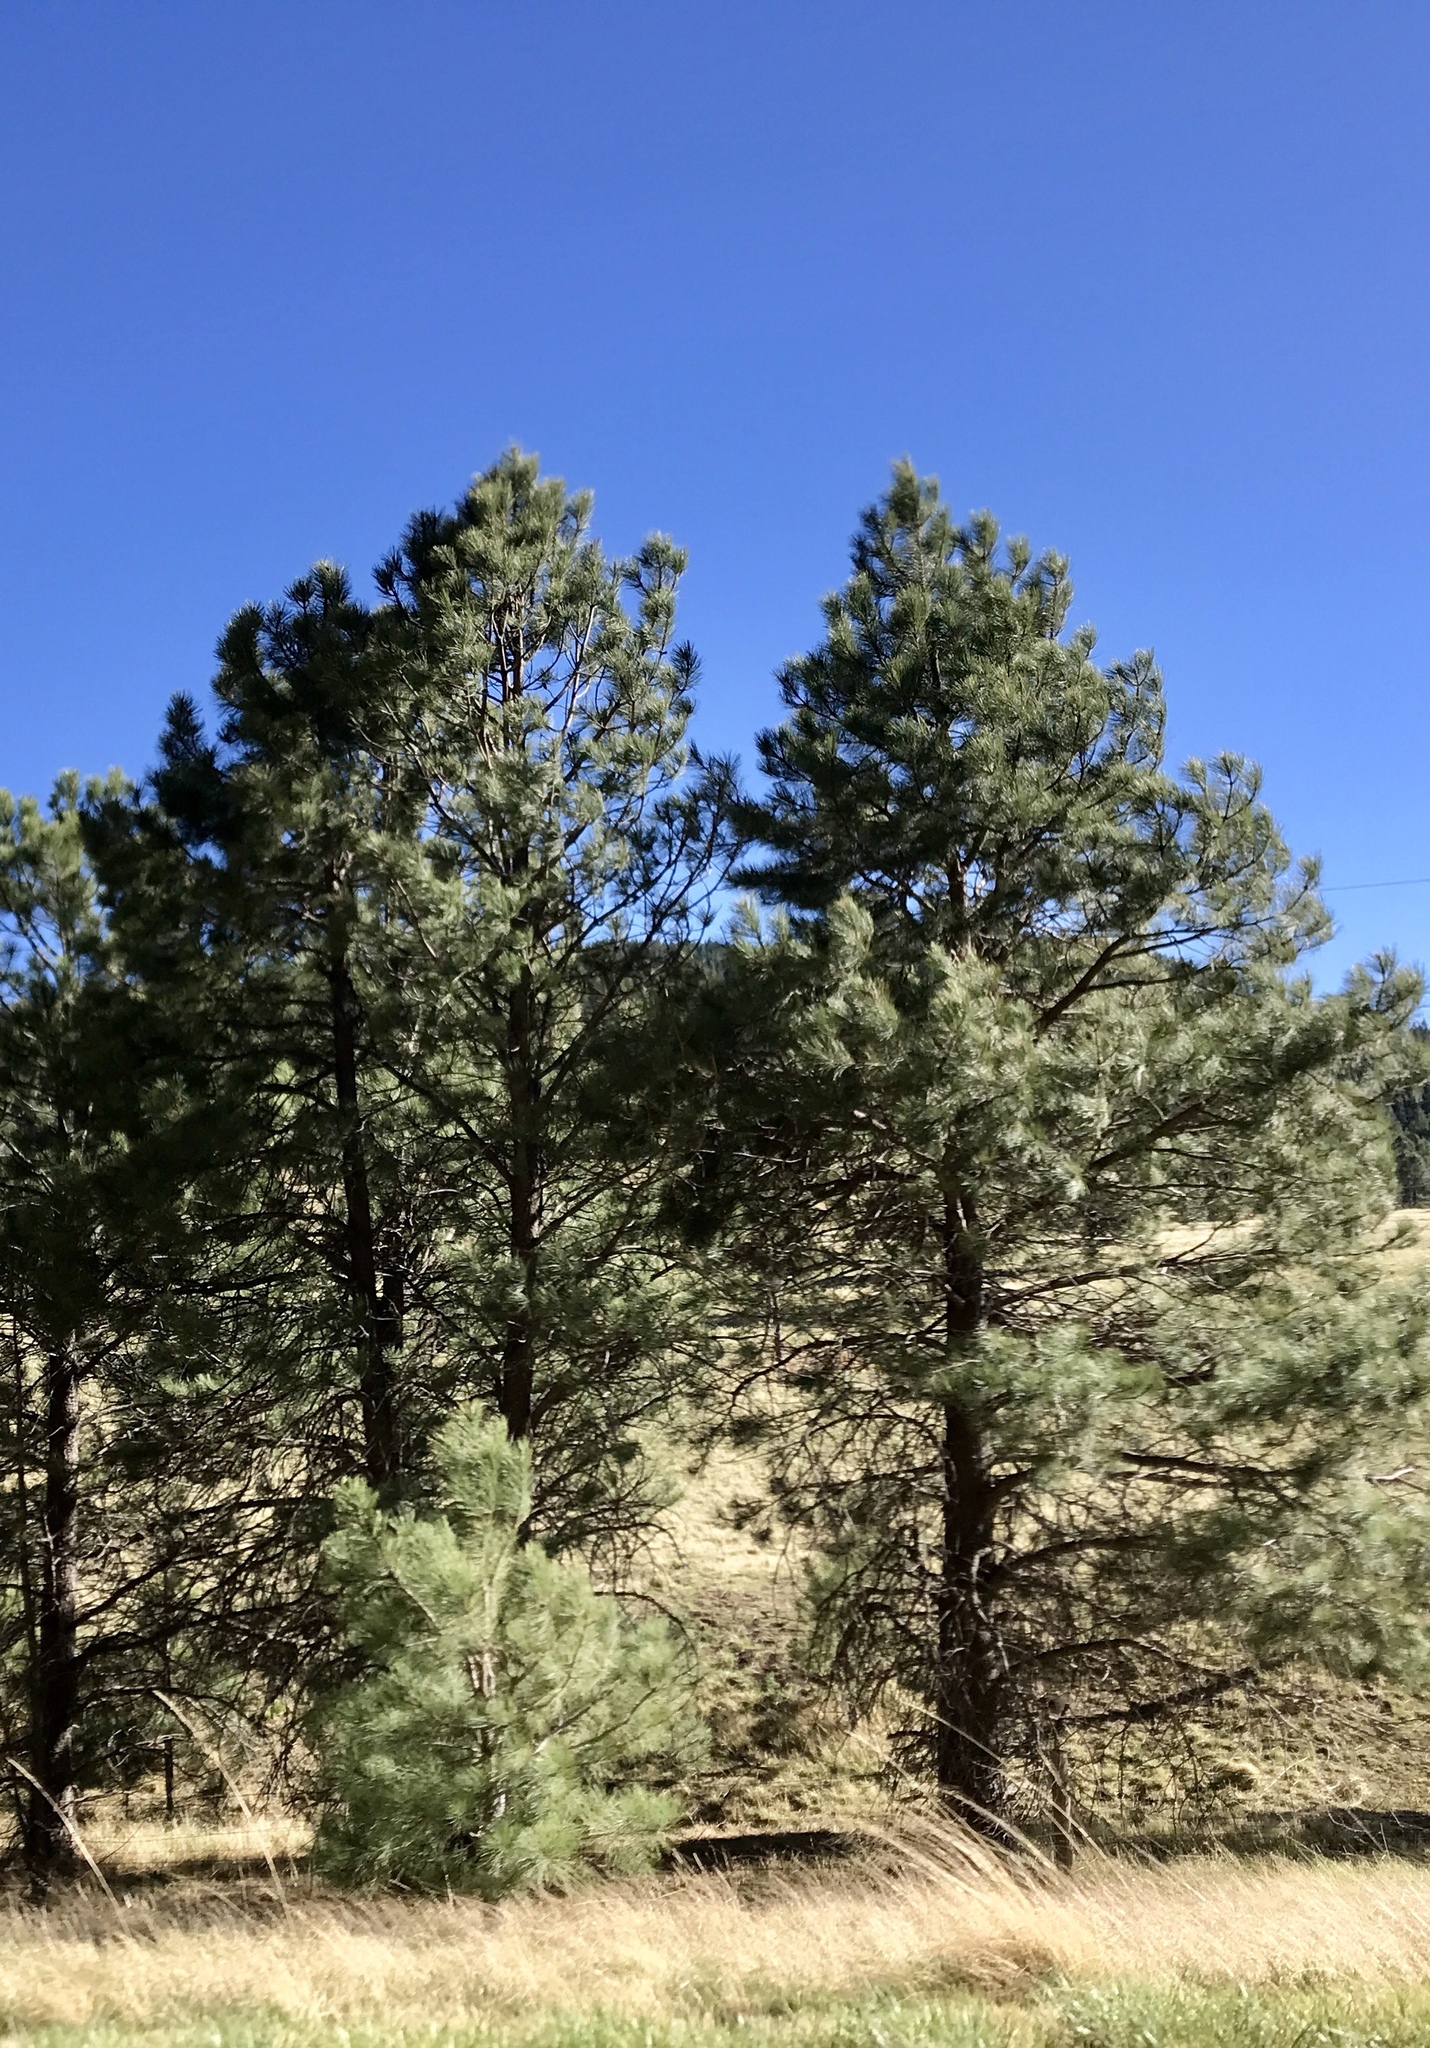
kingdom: Plantae
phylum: Tracheophyta
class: Pinopsida
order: Pinales
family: Pinaceae
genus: Pinus
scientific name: Pinus ponderosa
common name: Western yellow-pine
